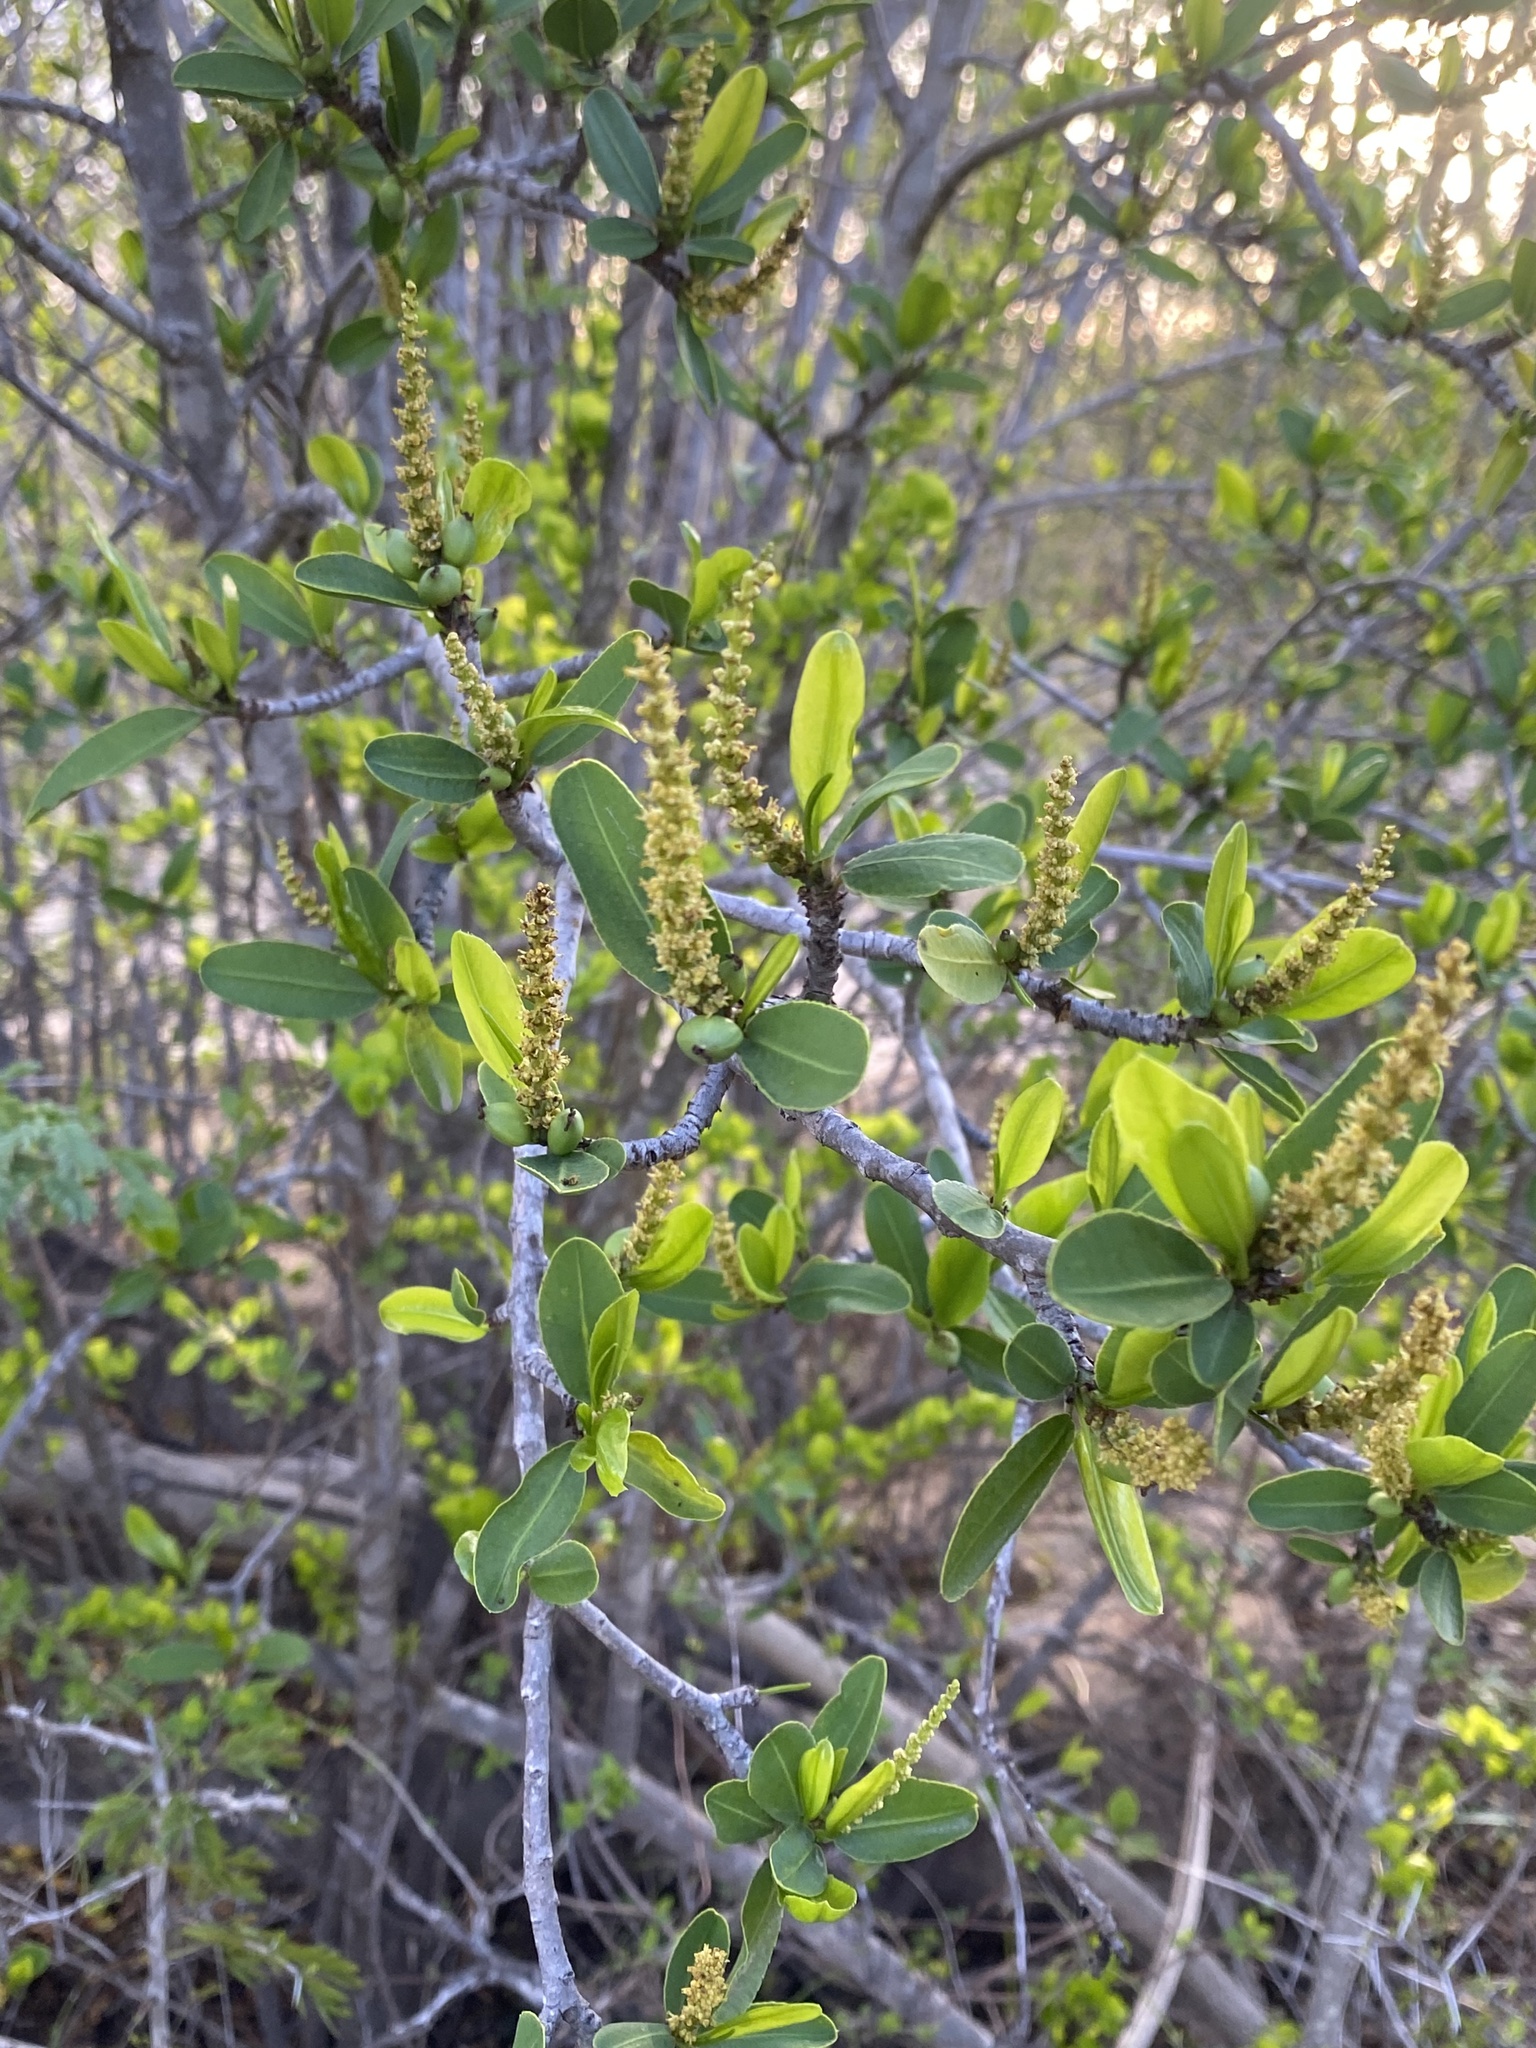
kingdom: Plantae
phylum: Tracheophyta
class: Magnoliopsida
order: Malpighiales
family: Euphorbiaceae
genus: Pleradenophora
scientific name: Pleradenophora bilocularis
